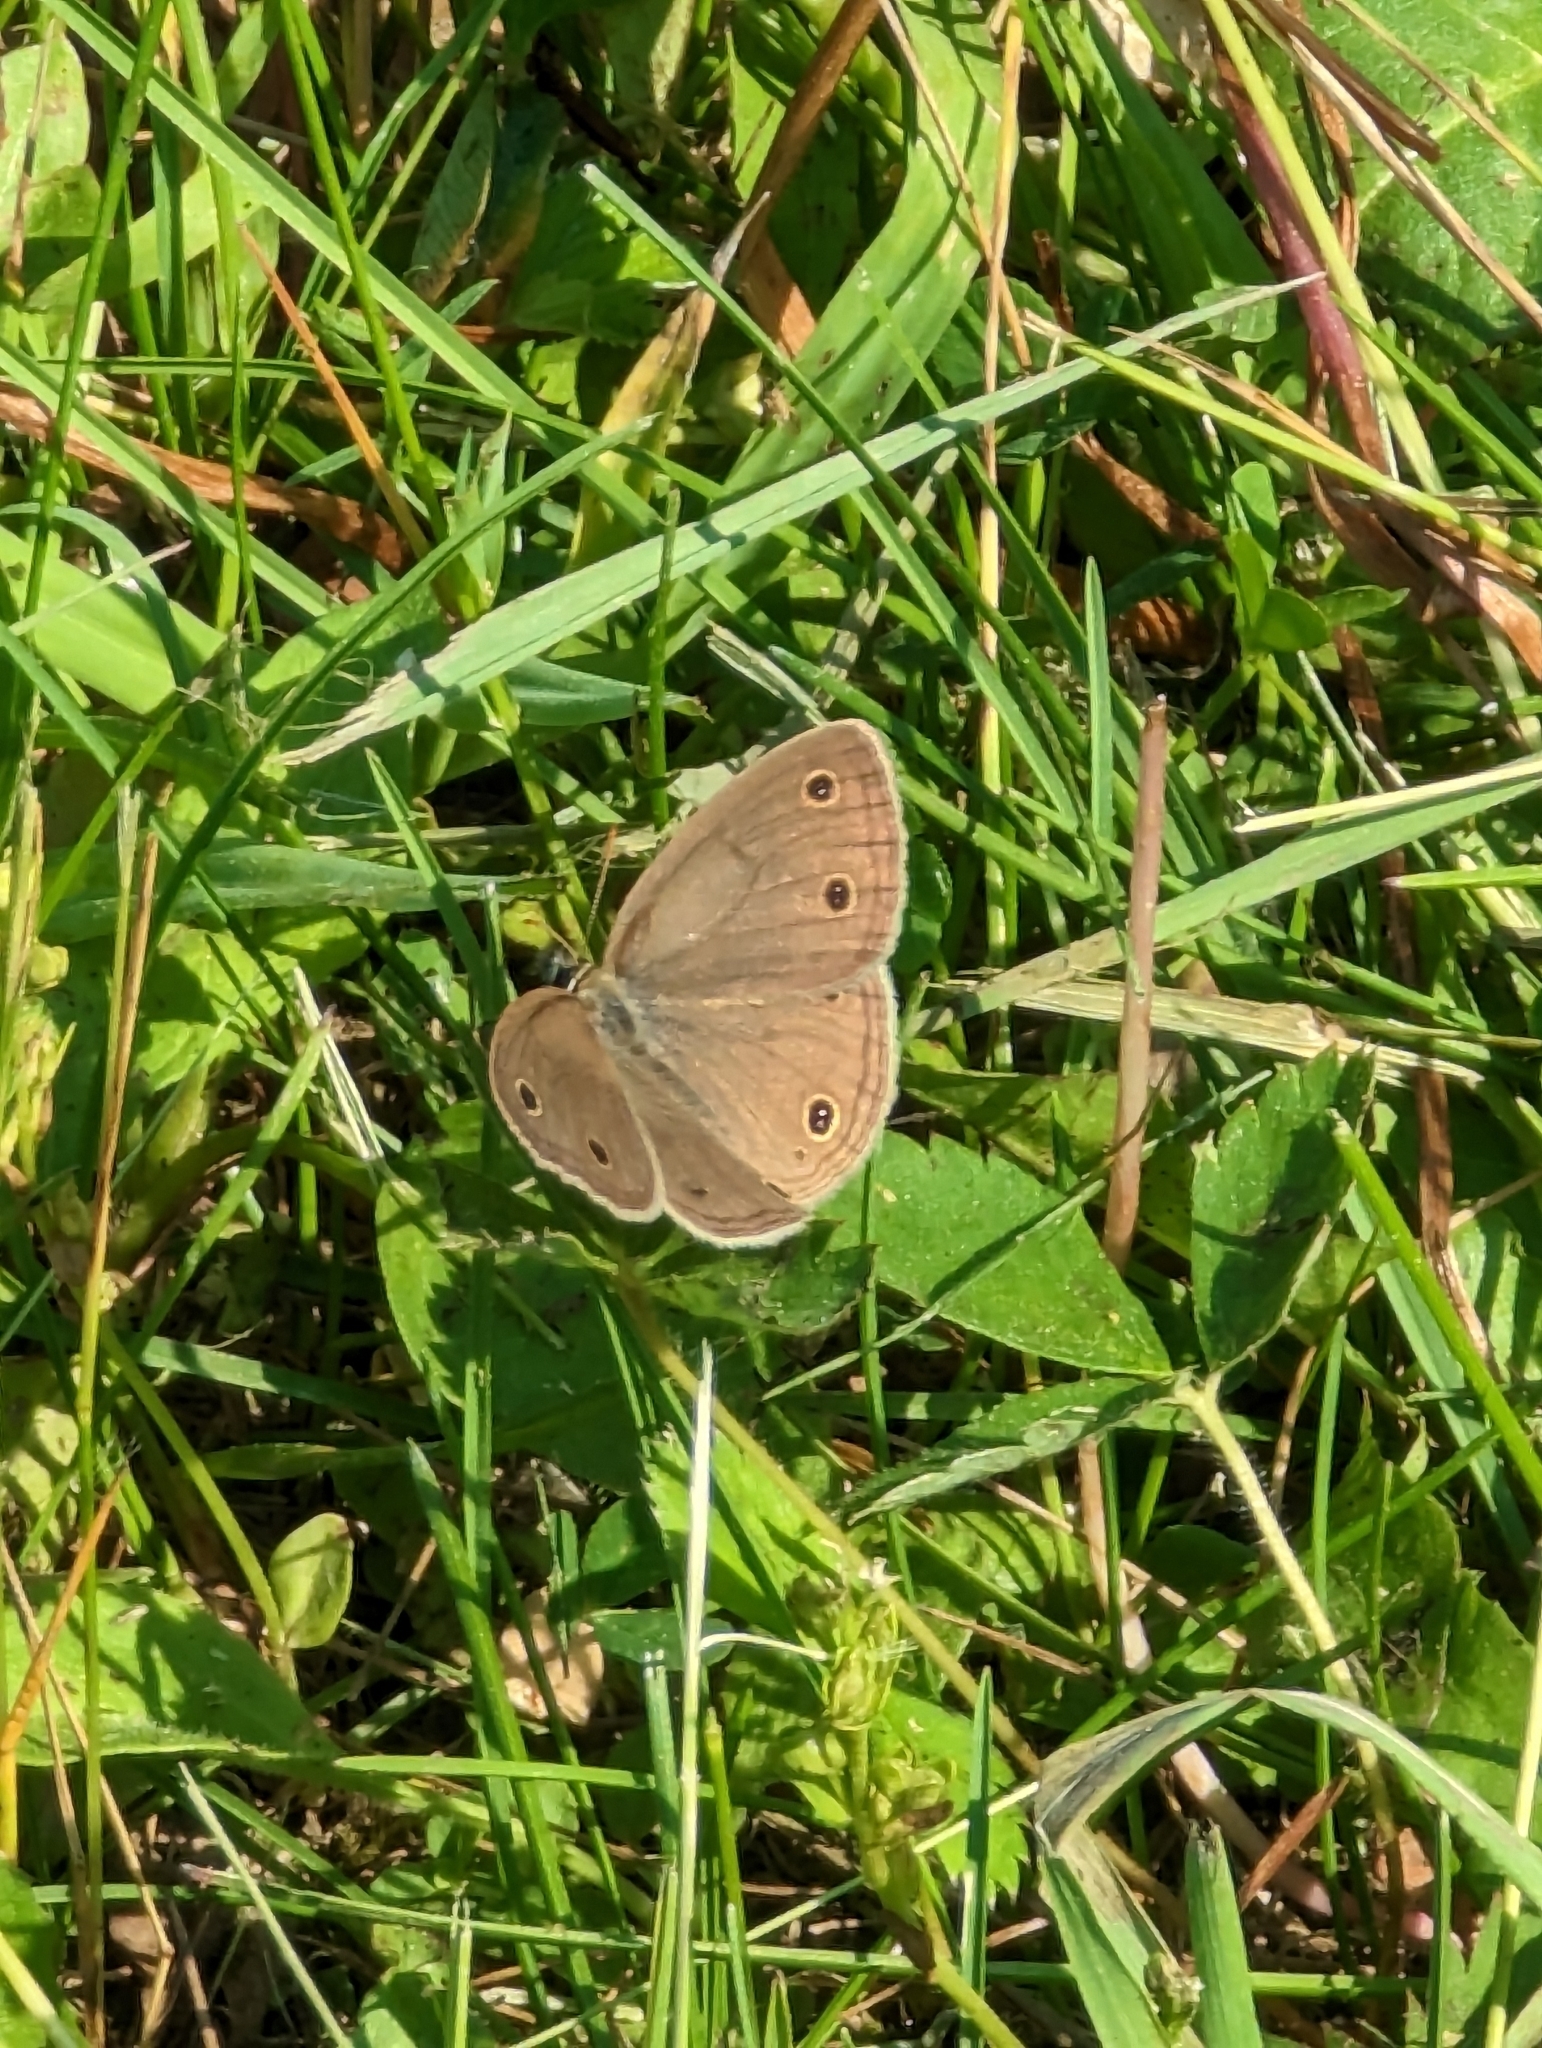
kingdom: Animalia
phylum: Arthropoda
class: Insecta
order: Lepidoptera
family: Nymphalidae
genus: Euptychia
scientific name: Euptychia cymela
